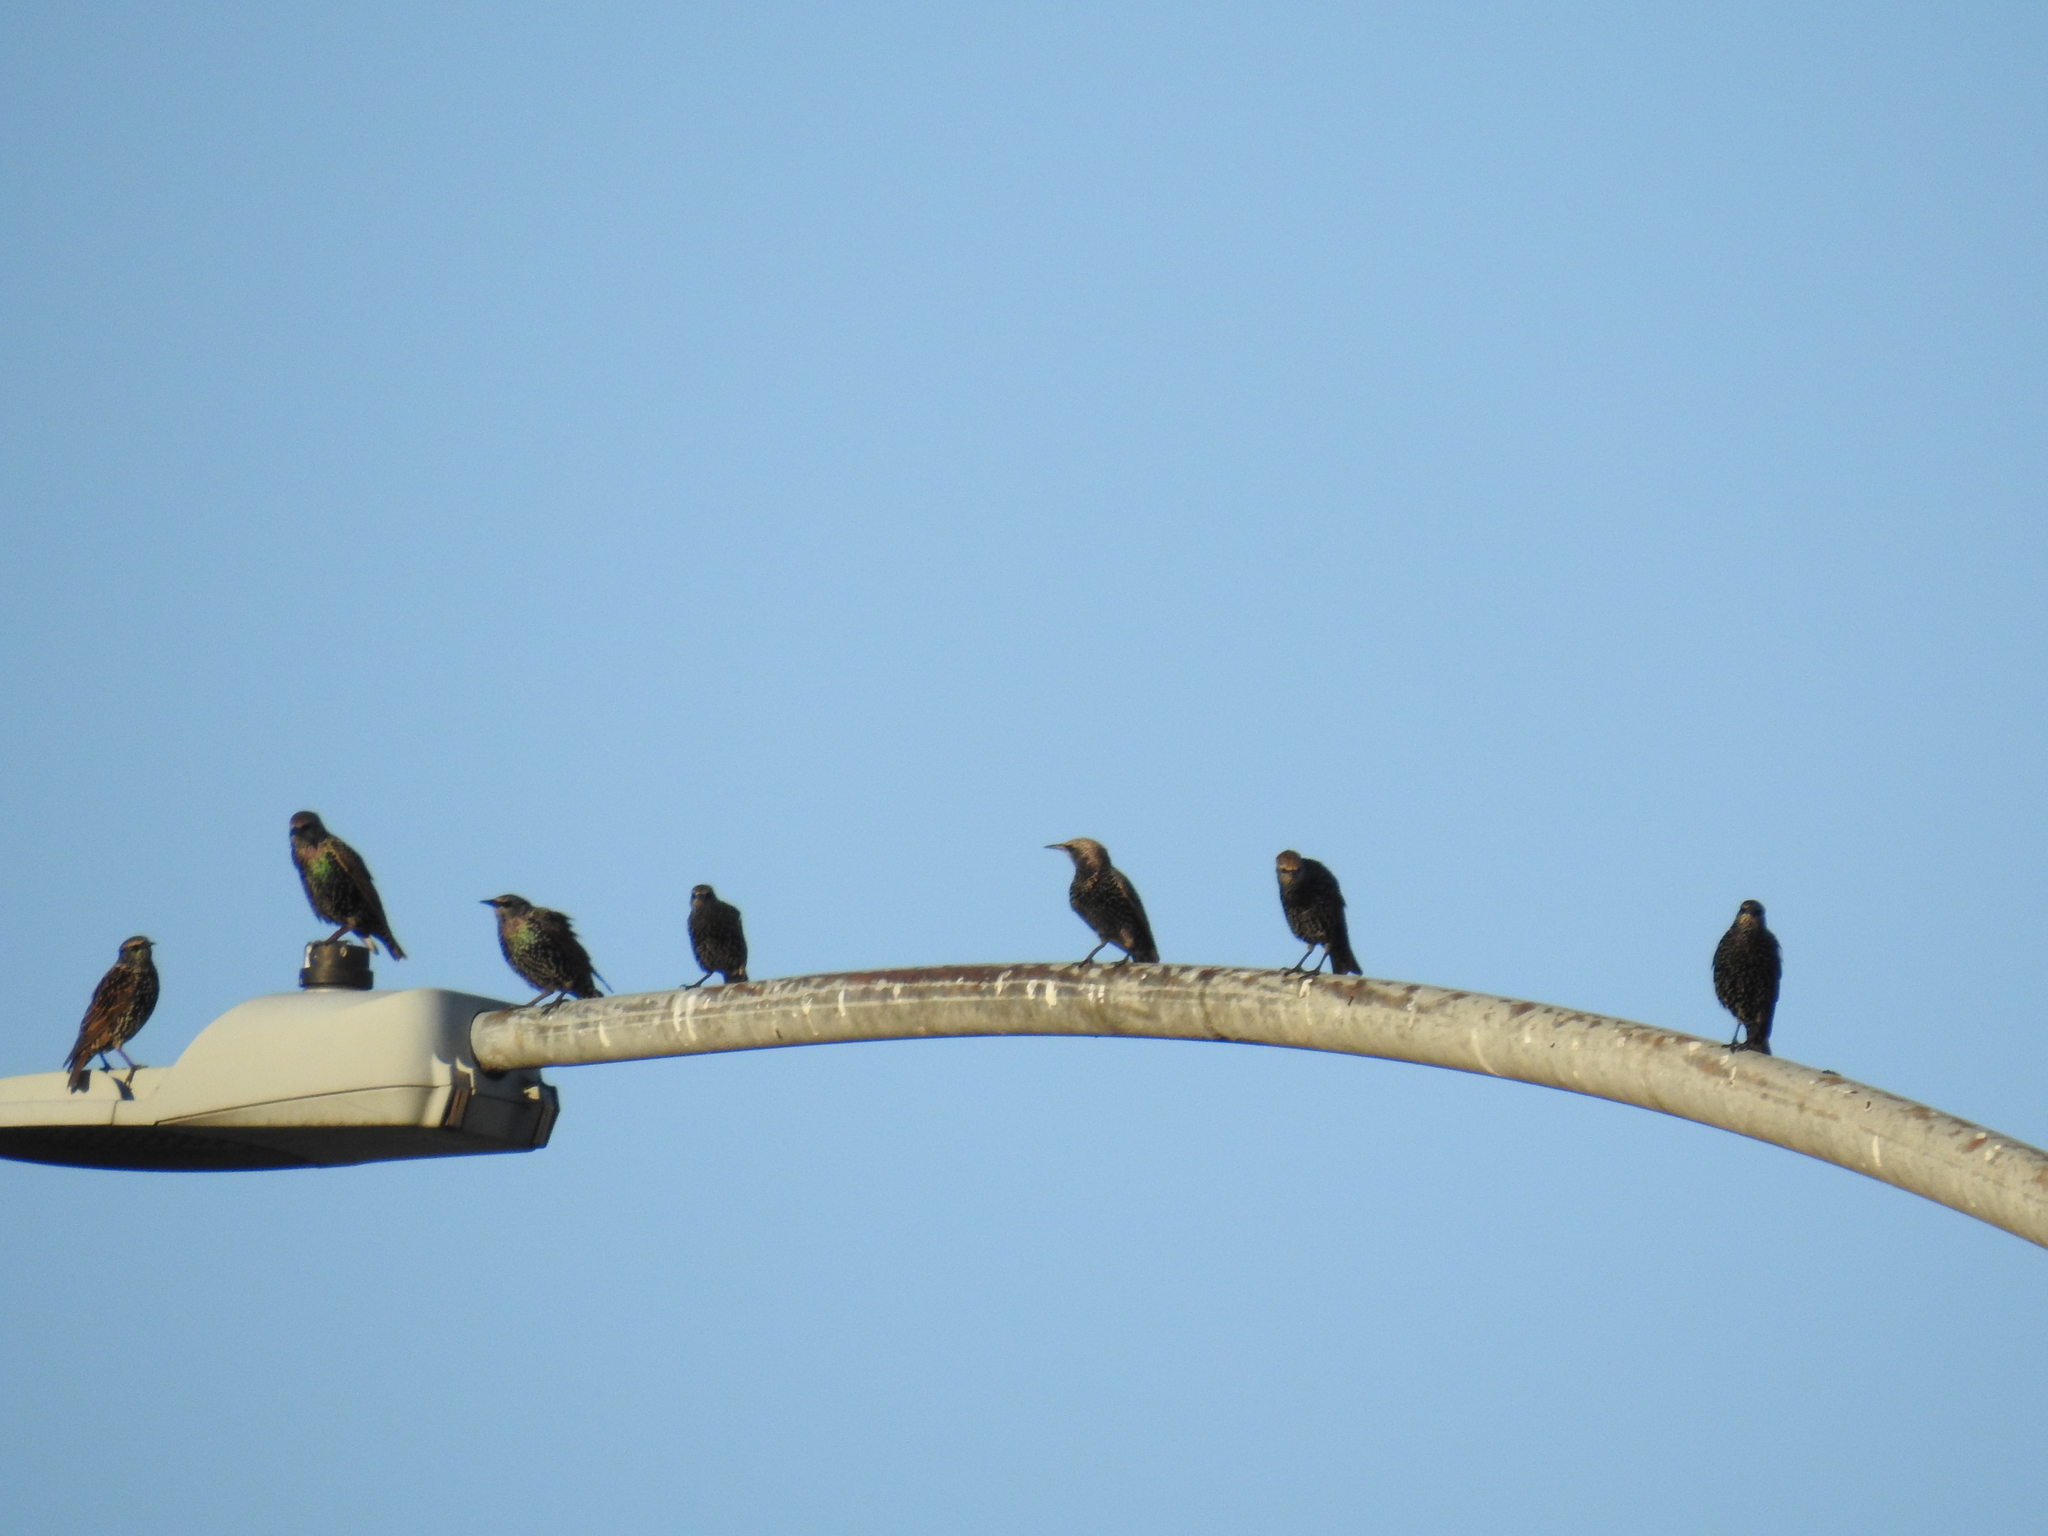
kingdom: Animalia
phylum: Chordata
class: Aves
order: Passeriformes
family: Sturnidae
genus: Sturnus
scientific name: Sturnus vulgaris
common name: Common starling
